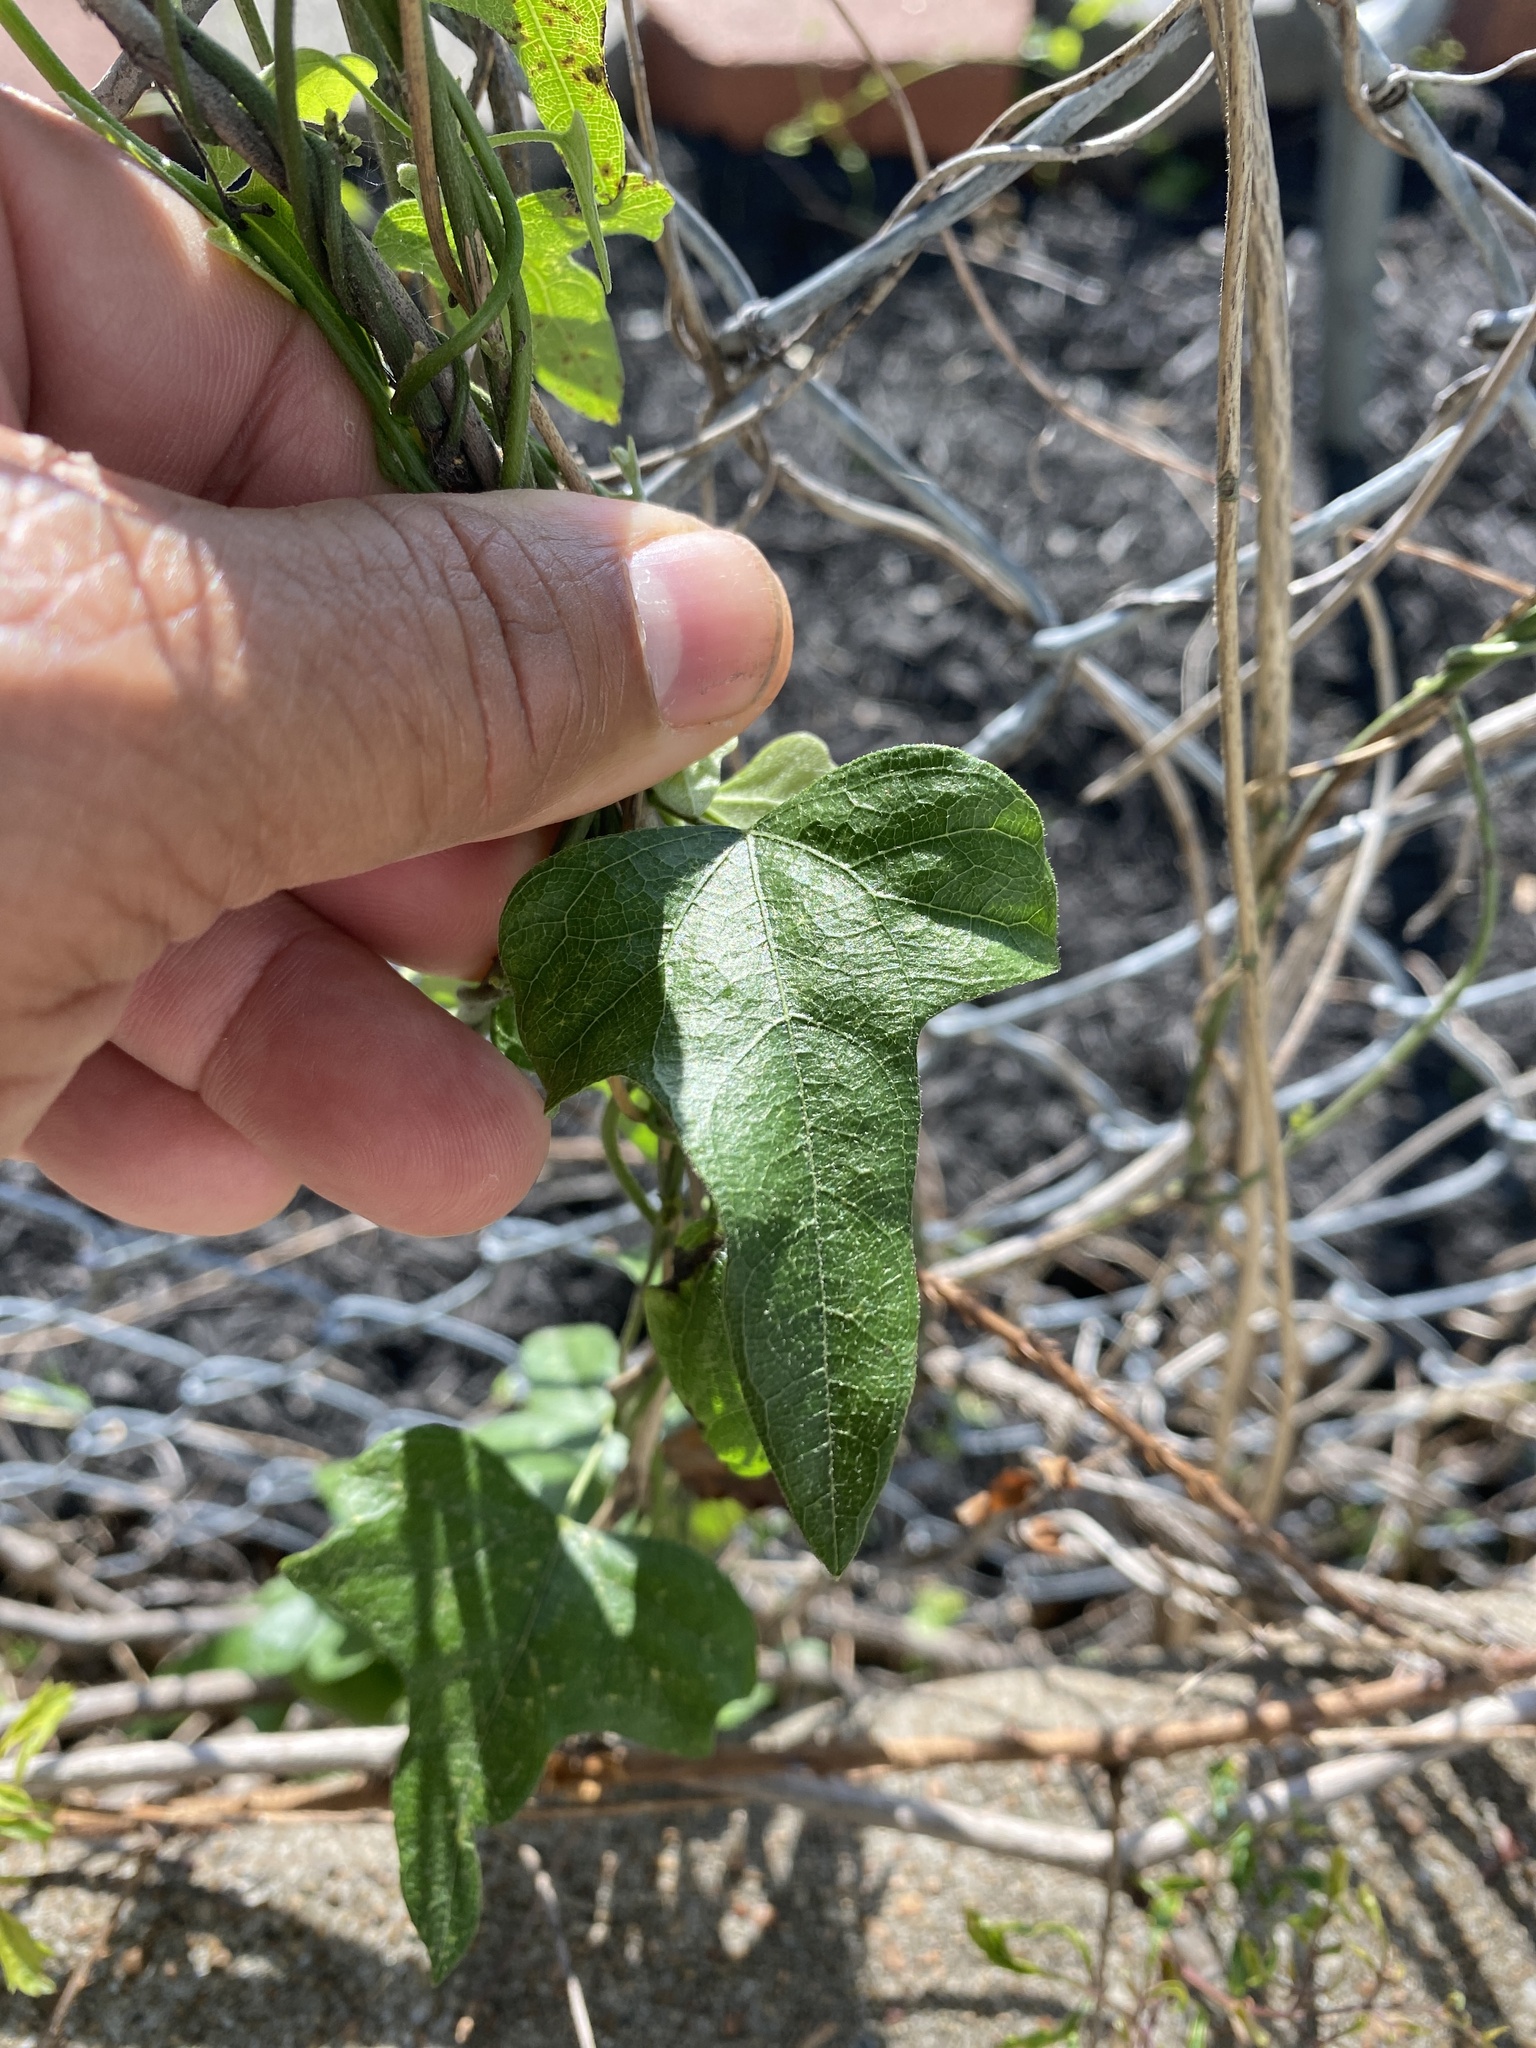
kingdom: Plantae
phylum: Tracheophyta
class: Magnoliopsida
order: Ranunculales
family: Menispermaceae
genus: Cocculus
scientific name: Cocculus carolinus
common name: Carolina moonseed
